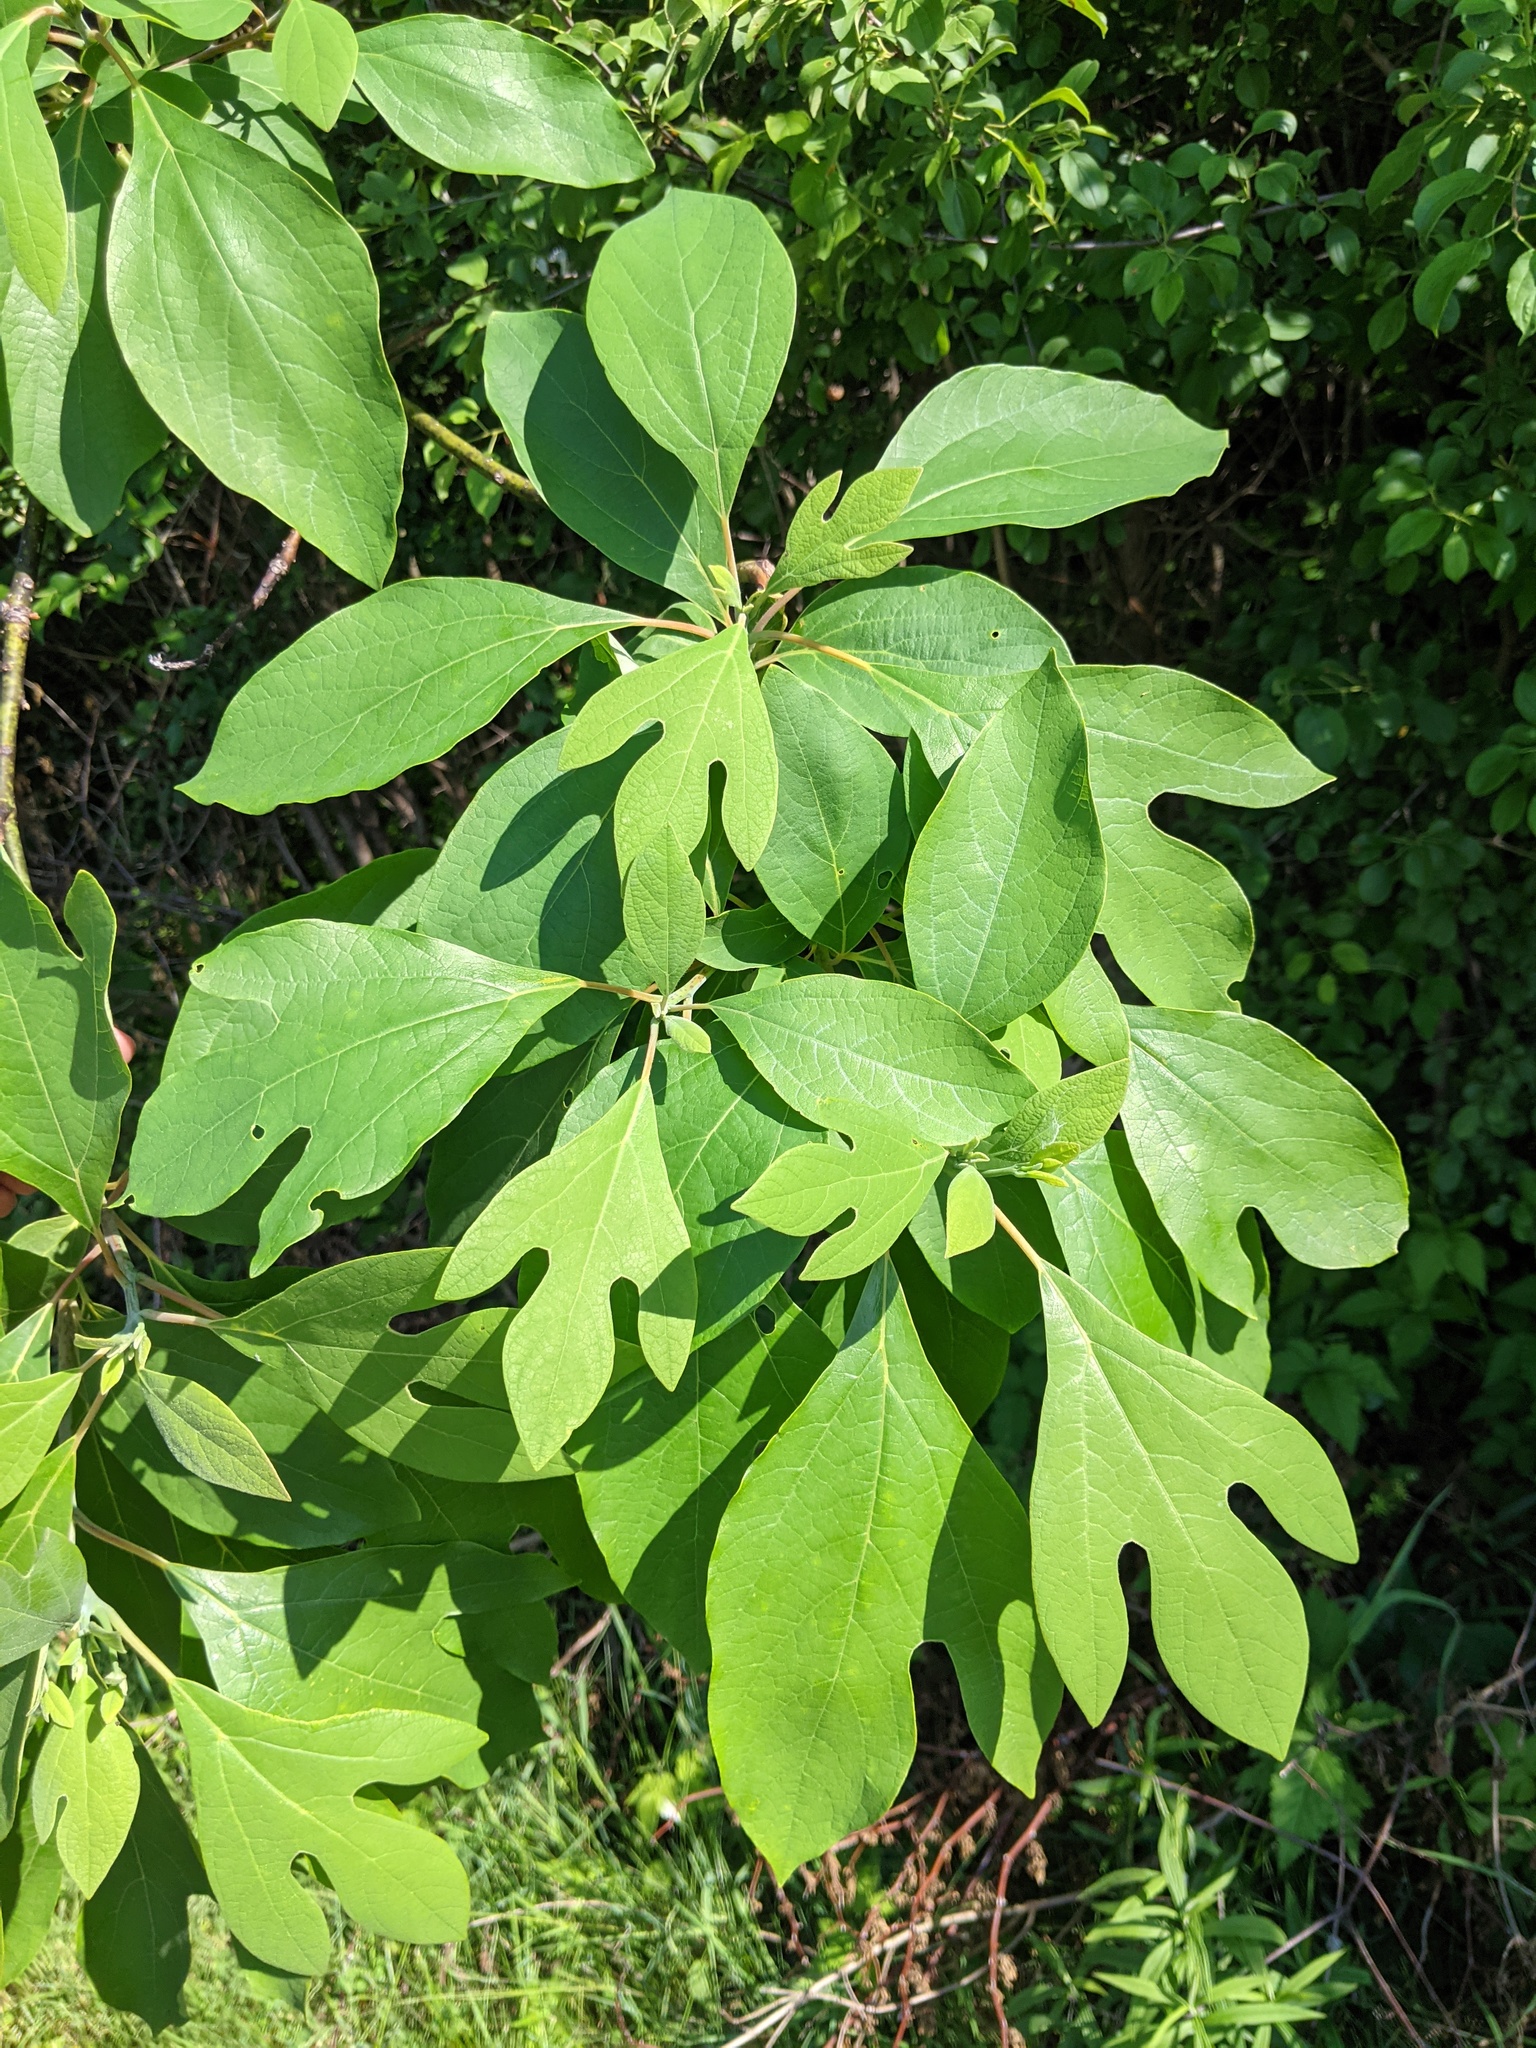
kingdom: Plantae
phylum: Tracheophyta
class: Magnoliopsida
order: Laurales
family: Lauraceae
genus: Sassafras
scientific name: Sassafras albidum
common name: Sassafras
